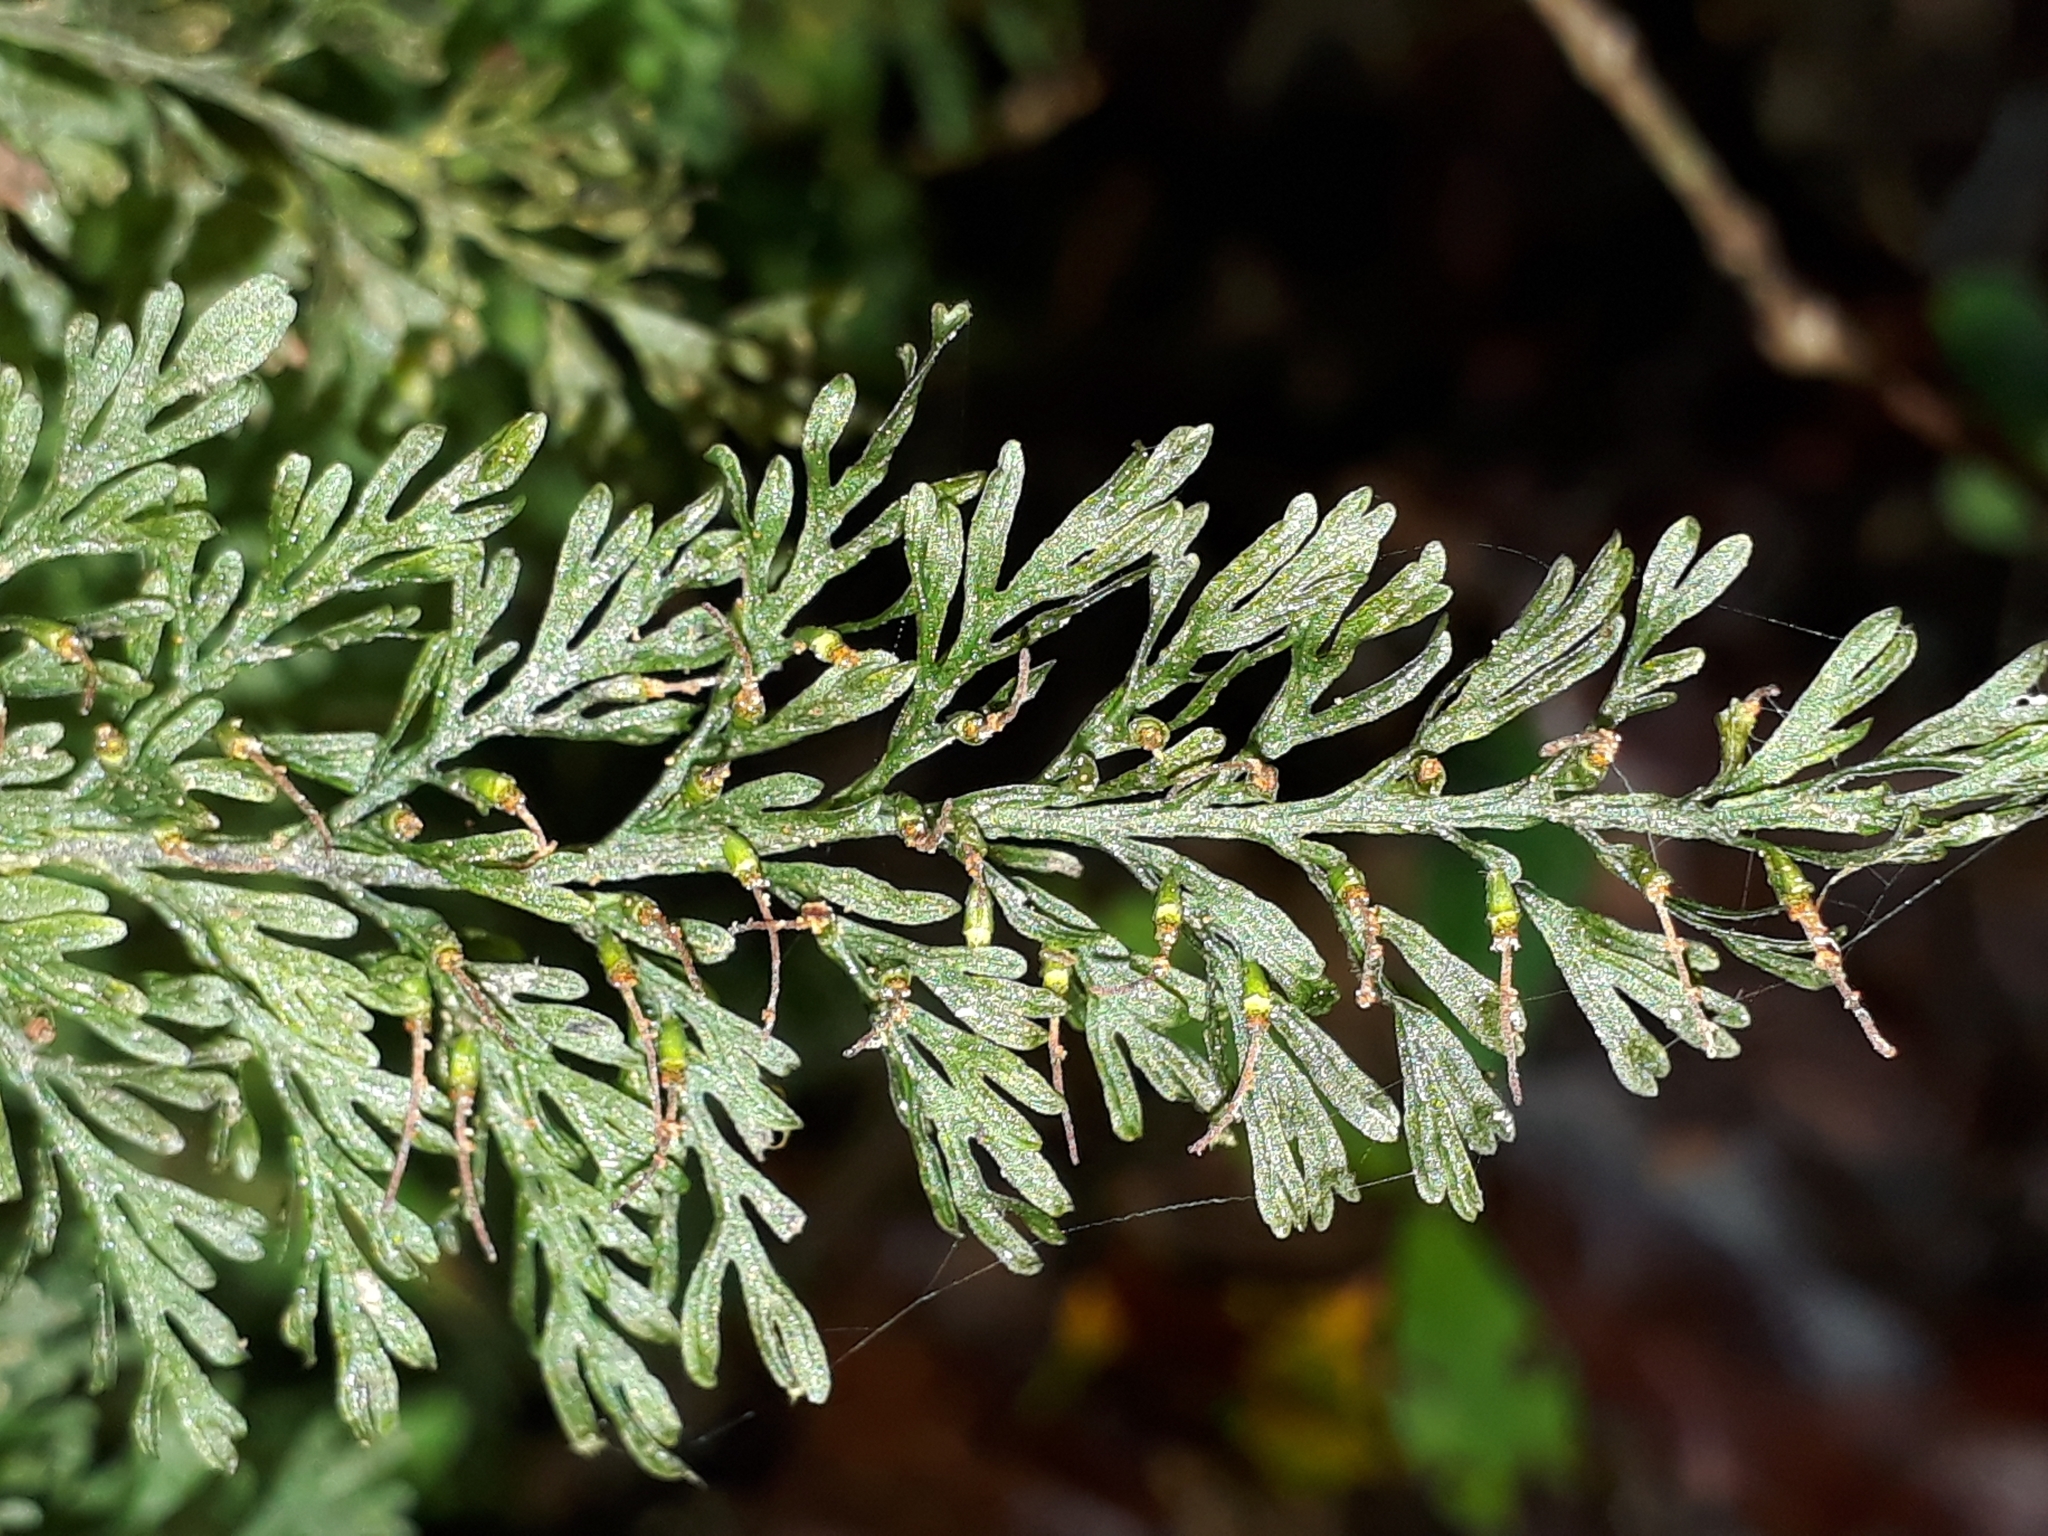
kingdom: Plantae
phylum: Tracheophyta
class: Polypodiopsida
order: Hymenophyllales
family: Hymenophyllaceae
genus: Abrodictyum
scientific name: Abrodictyum strictum
